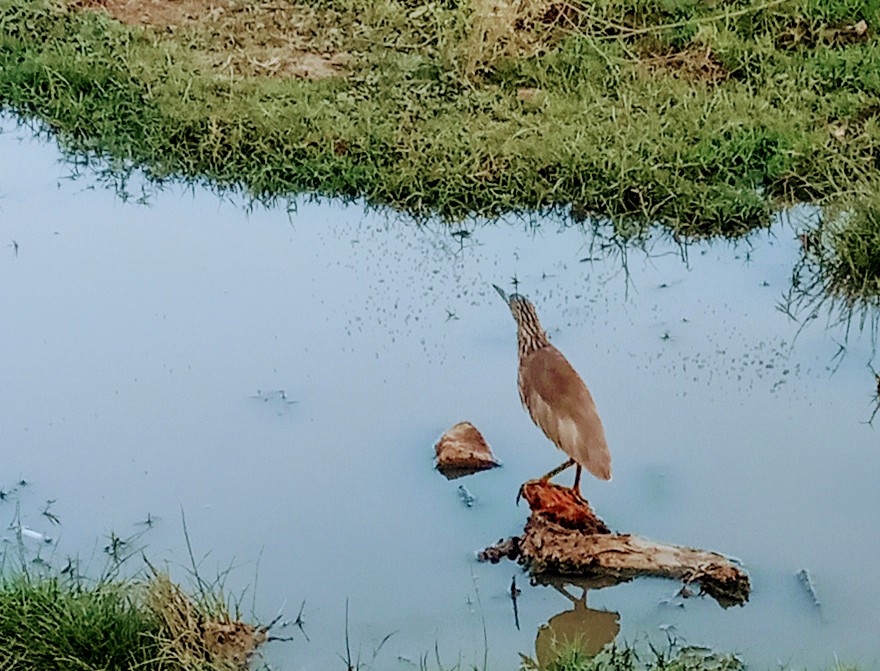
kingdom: Animalia
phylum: Chordata
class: Aves
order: Pelecaniformes
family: Ardeidae
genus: Ardeola
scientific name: Ardeola grayii
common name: Indian pond heron
